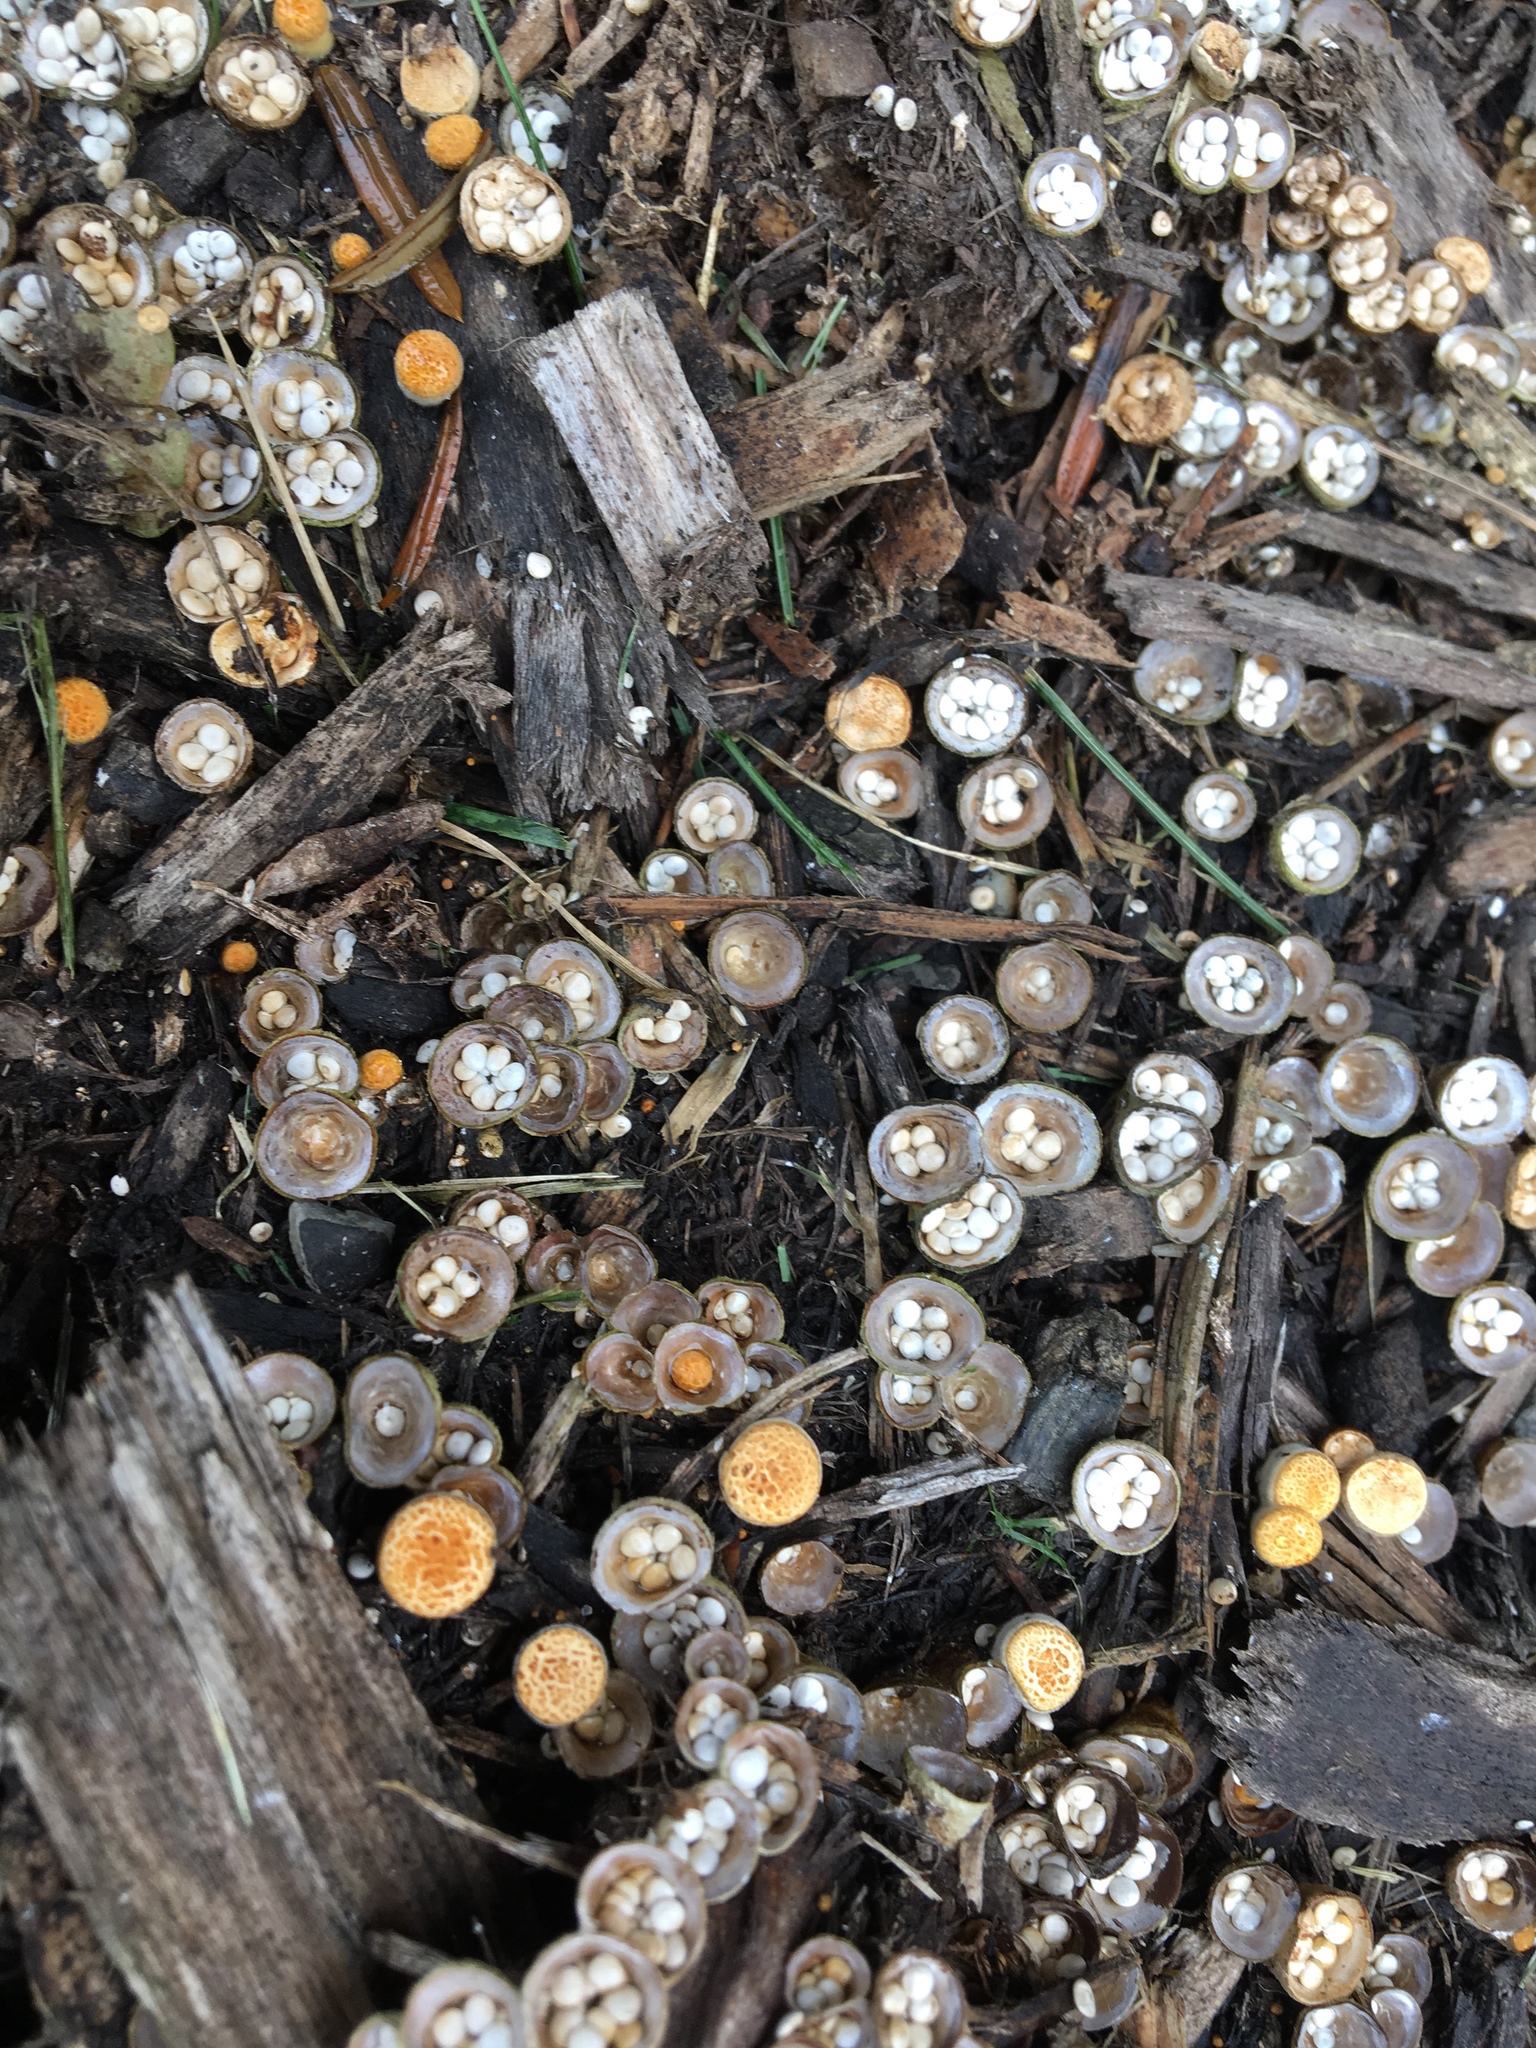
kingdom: Fungi
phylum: Basidiomycota
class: Agaricomycetes
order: Agaricales
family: Nidulariaceae
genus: Crucibulum
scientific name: Crucibulum laeve
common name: Common bird's nest
